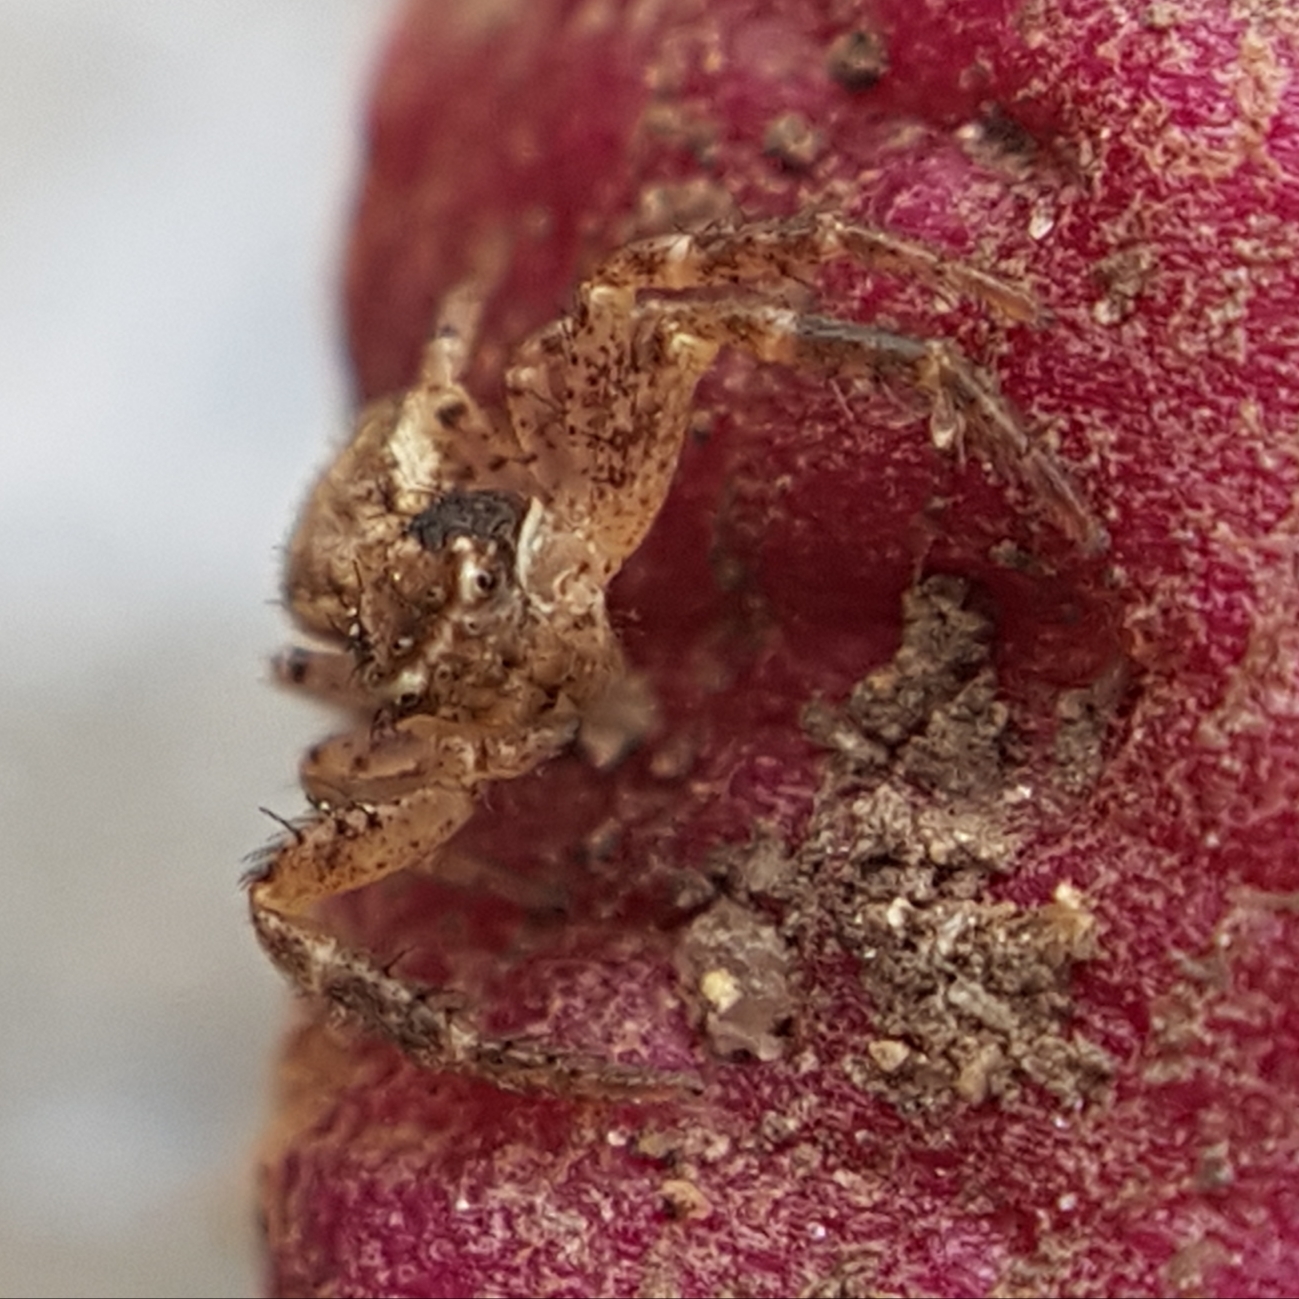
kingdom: Animalia
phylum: Arthropoda
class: Arachnida
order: Araneae
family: Thomisidae
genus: Xysticus
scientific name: Xysticus
